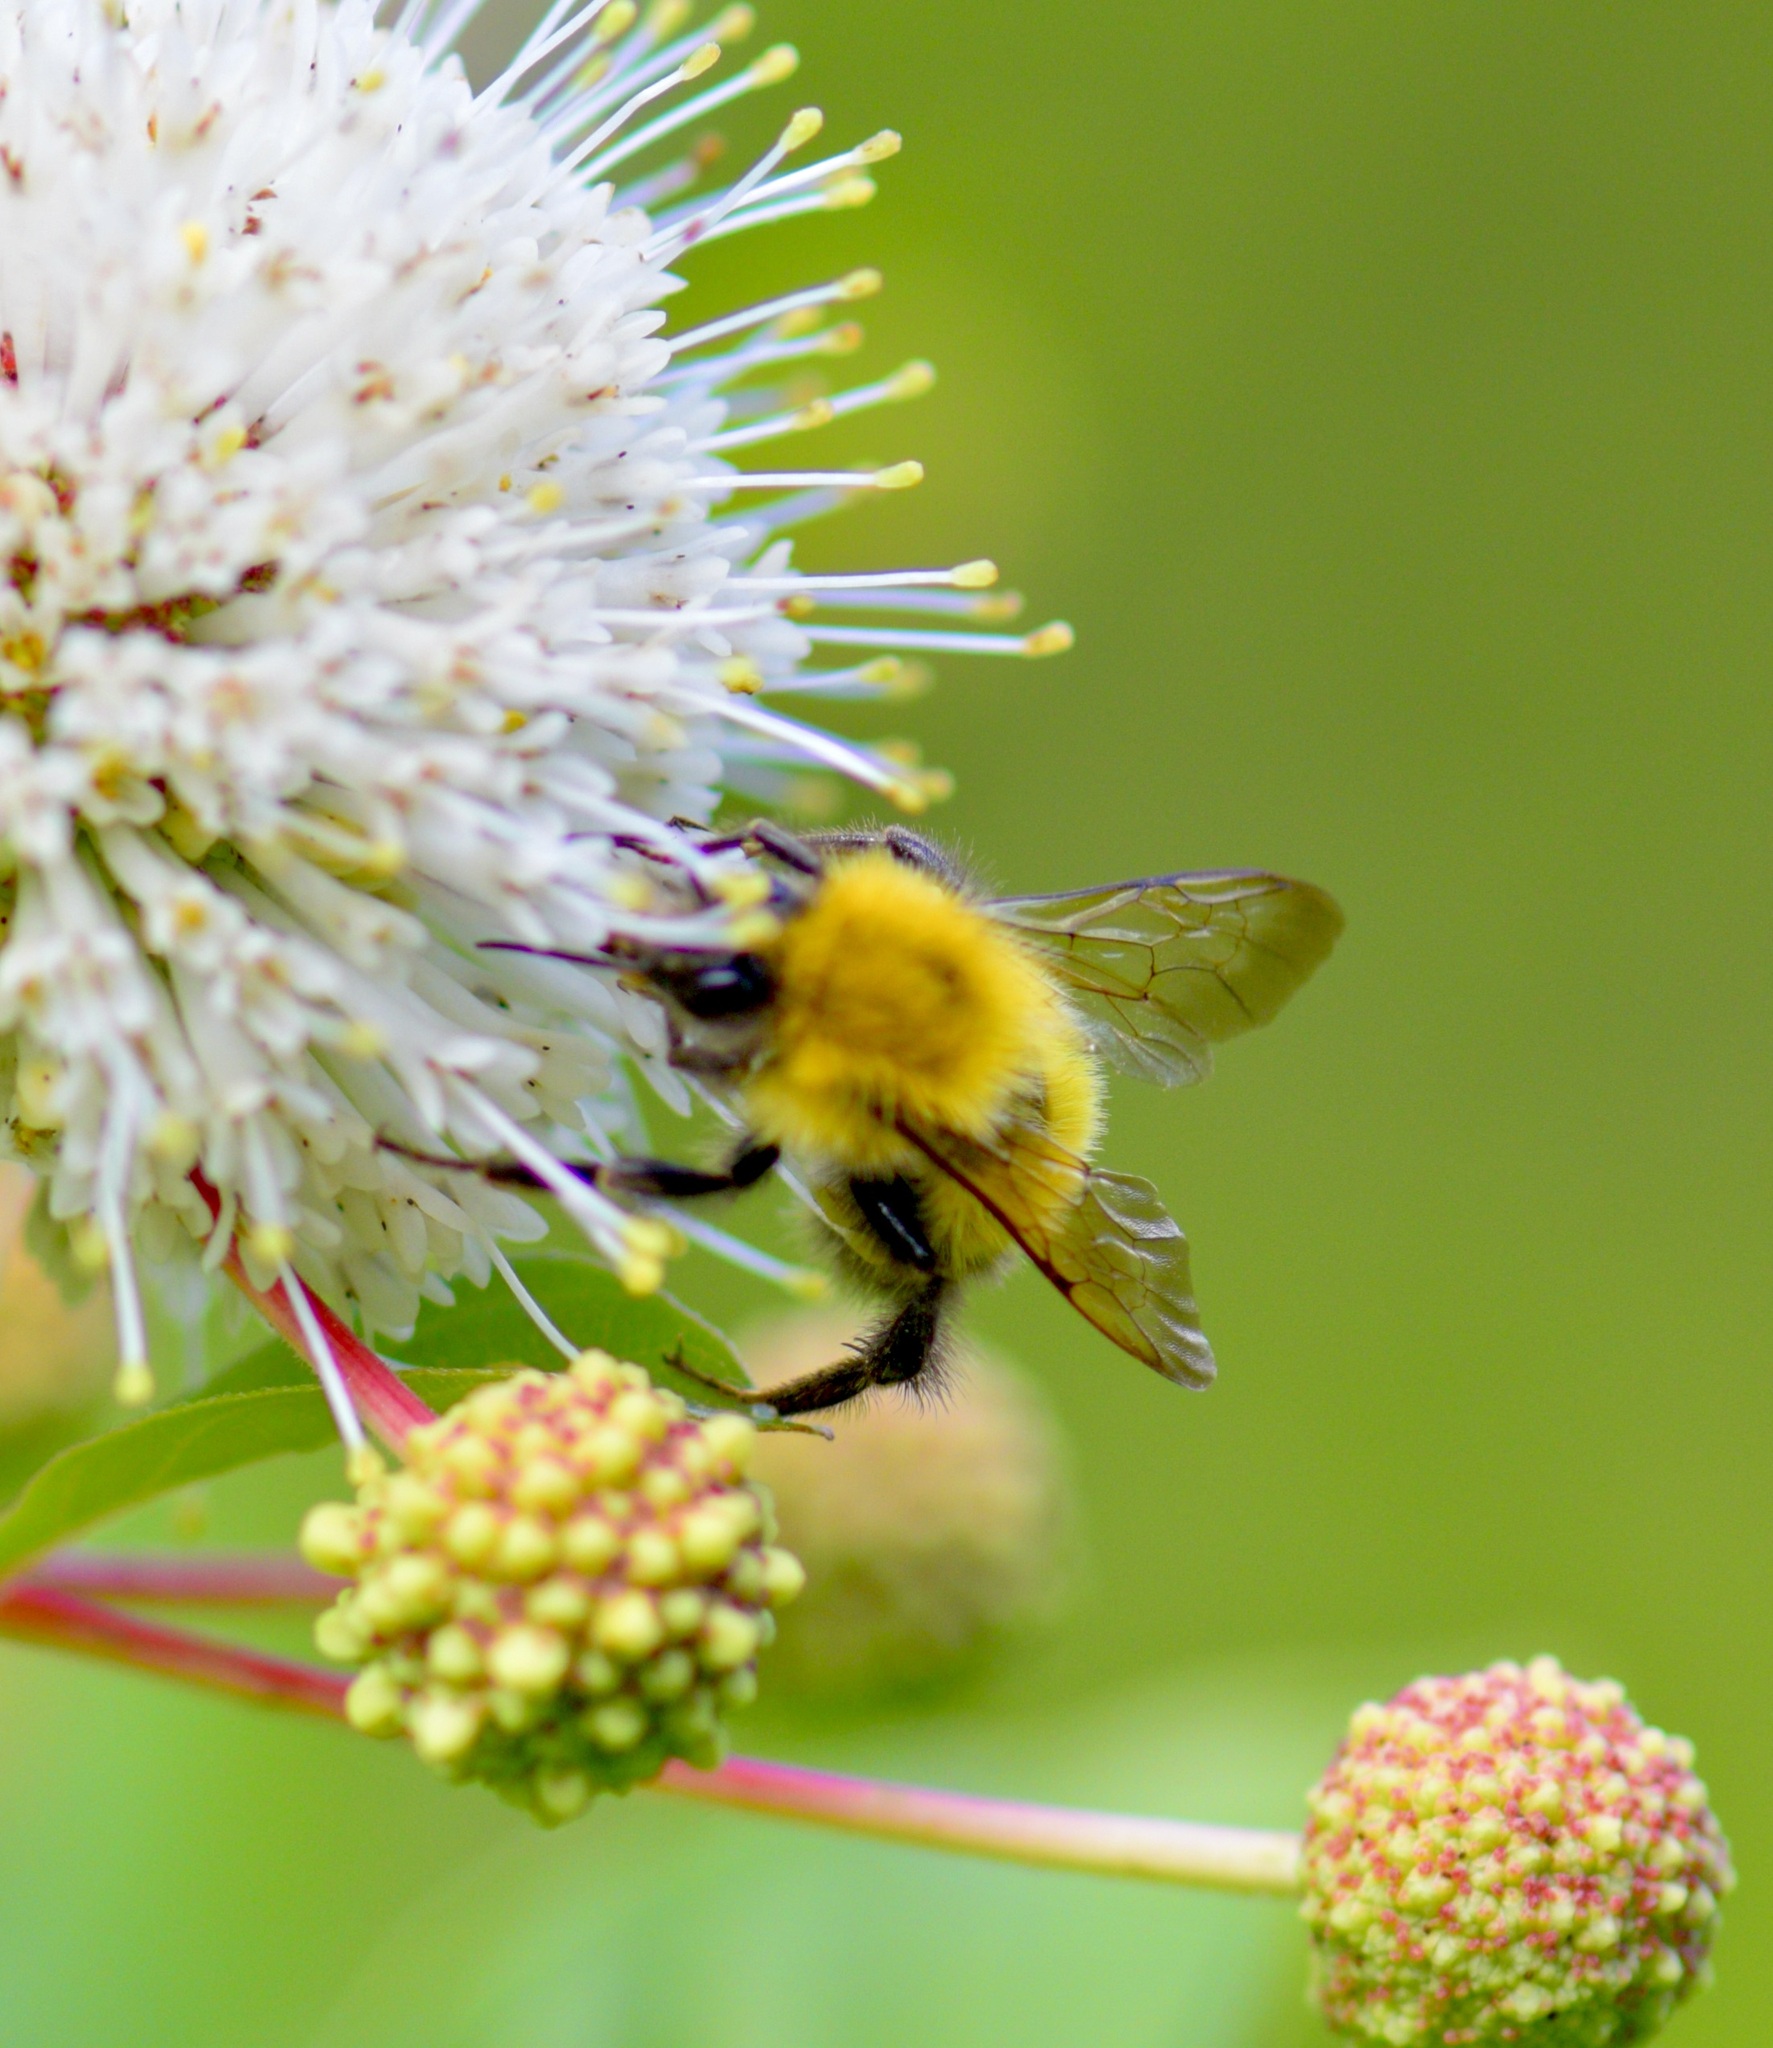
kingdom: Animalia
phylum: Arthropoda
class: Insecta
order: Hymenoptera
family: Apidae
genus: Bombus
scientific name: Bombus perplexus
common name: Confusing bumble bee
